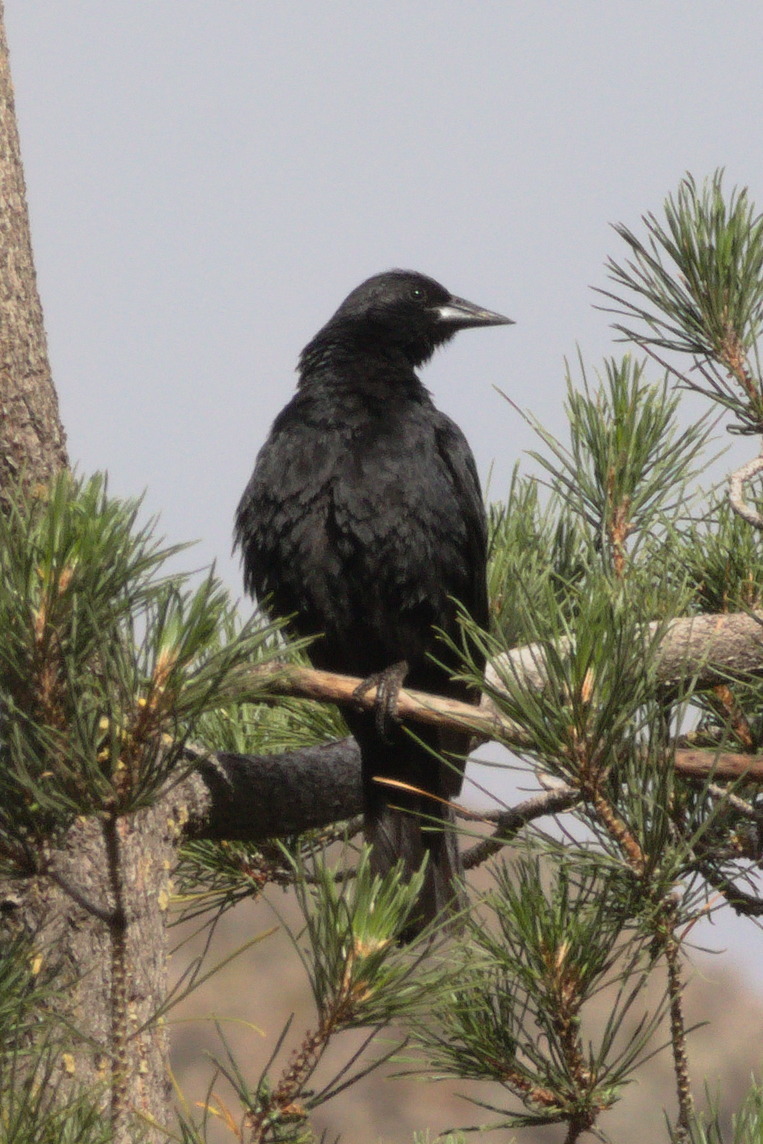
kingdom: Animalia
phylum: Chordata
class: Aves
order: Passeriformes
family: Icteridae
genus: Curaeus
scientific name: Curaeus curaeus
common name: Austral blackbird
